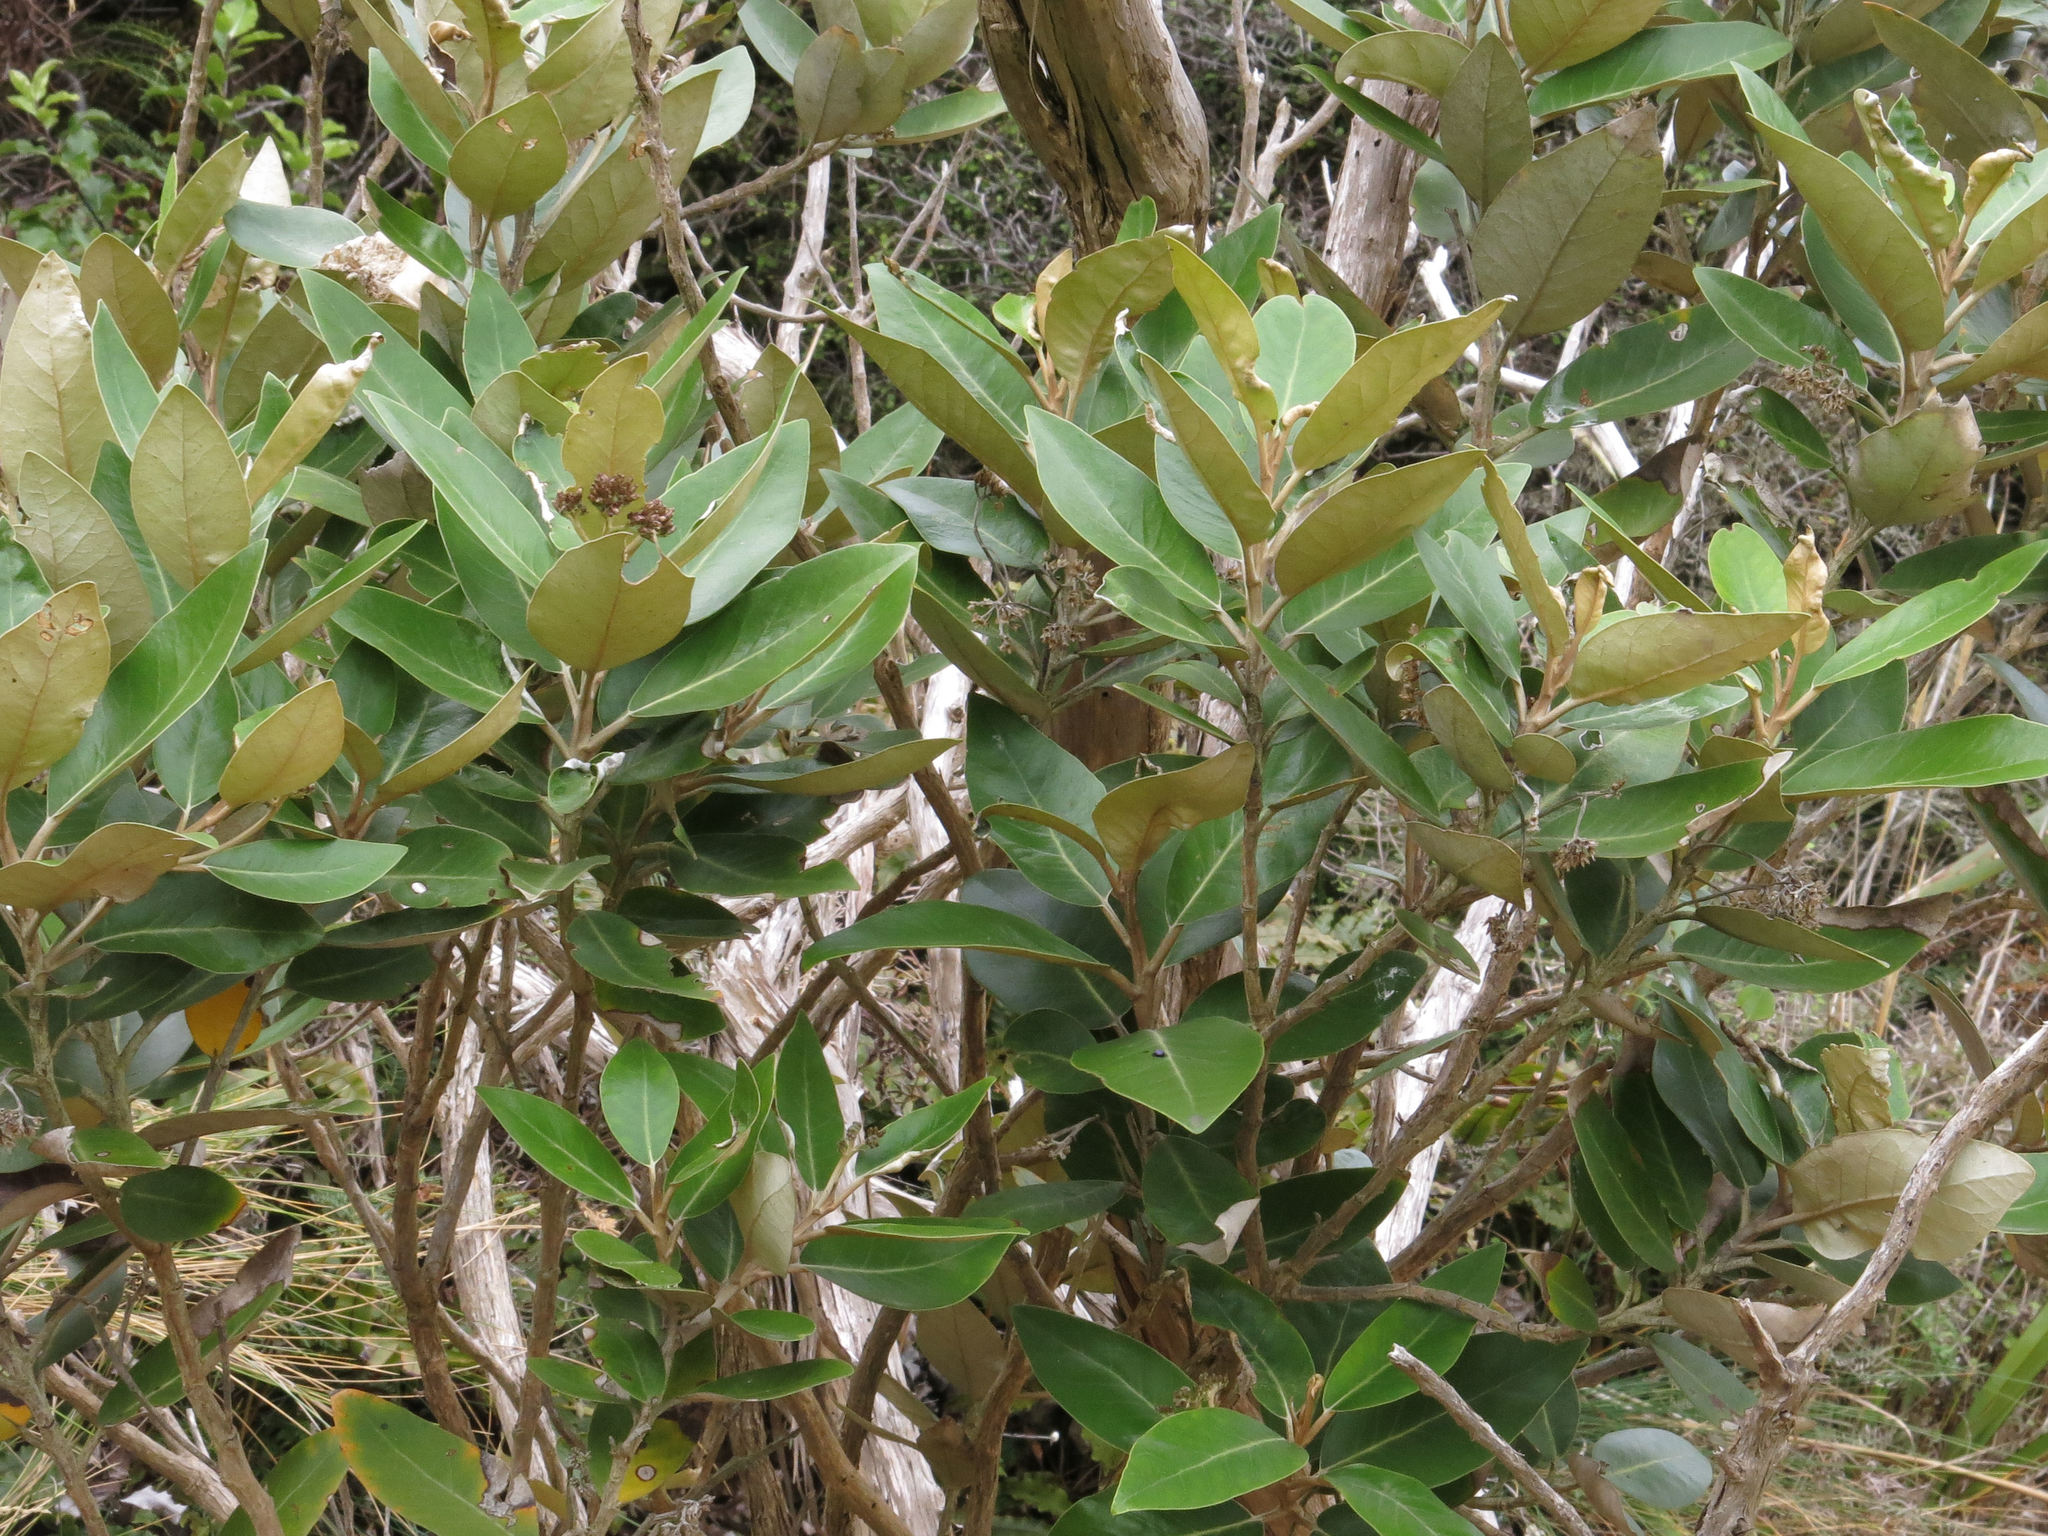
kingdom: Plantae
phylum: Tracheophyta
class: Magnoliopsida
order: Asterales
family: Asteraceae
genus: Olearia
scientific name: Olearia avicenniifolia
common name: Mangrove-leaf daisybush
